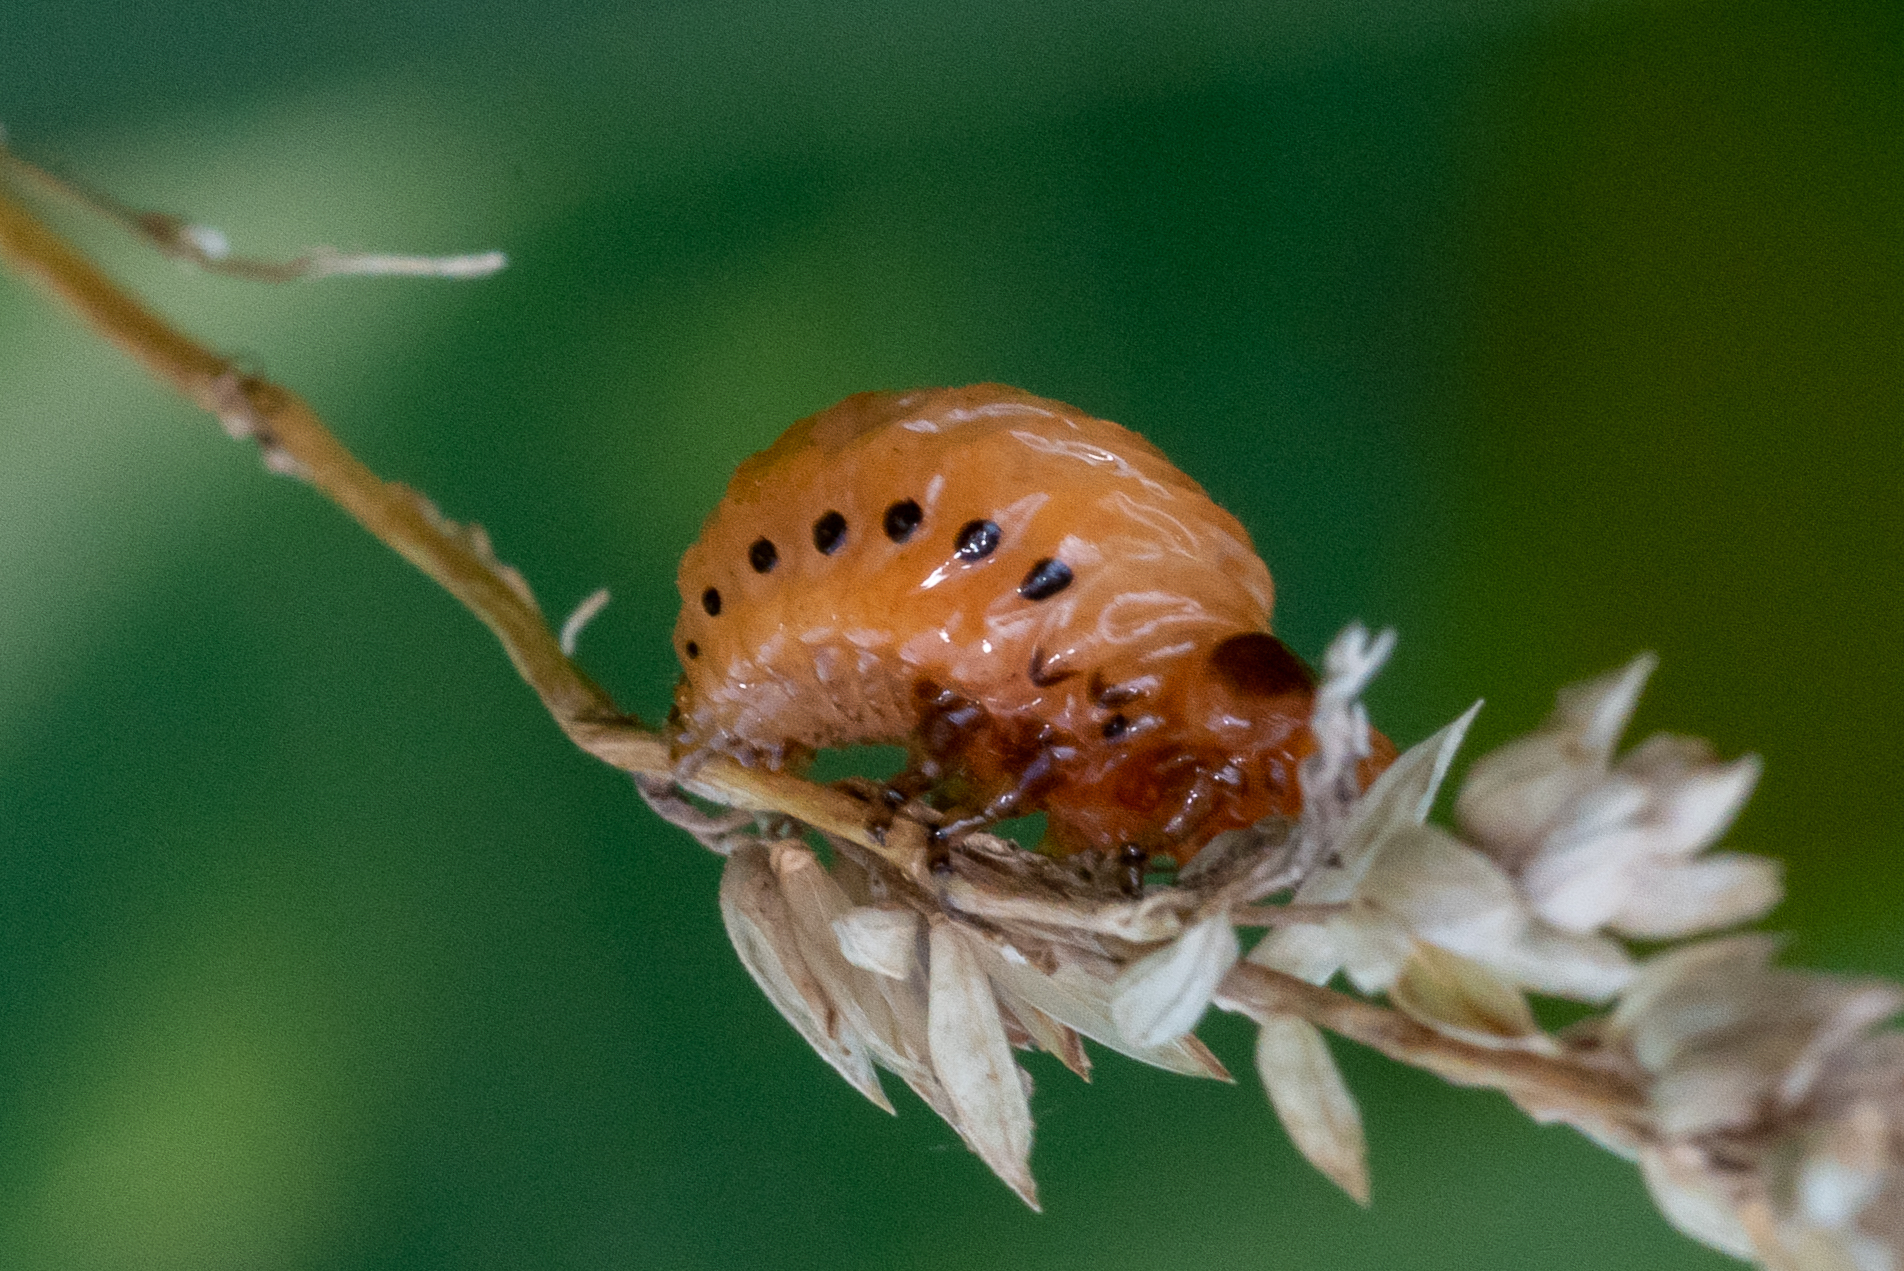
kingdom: Animalia
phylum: Arthropoda
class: Insecta
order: Coleoptera
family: Chrysomelidae
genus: Leptinotarsa
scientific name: Leptinotarsa juncta
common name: False potato beetle
